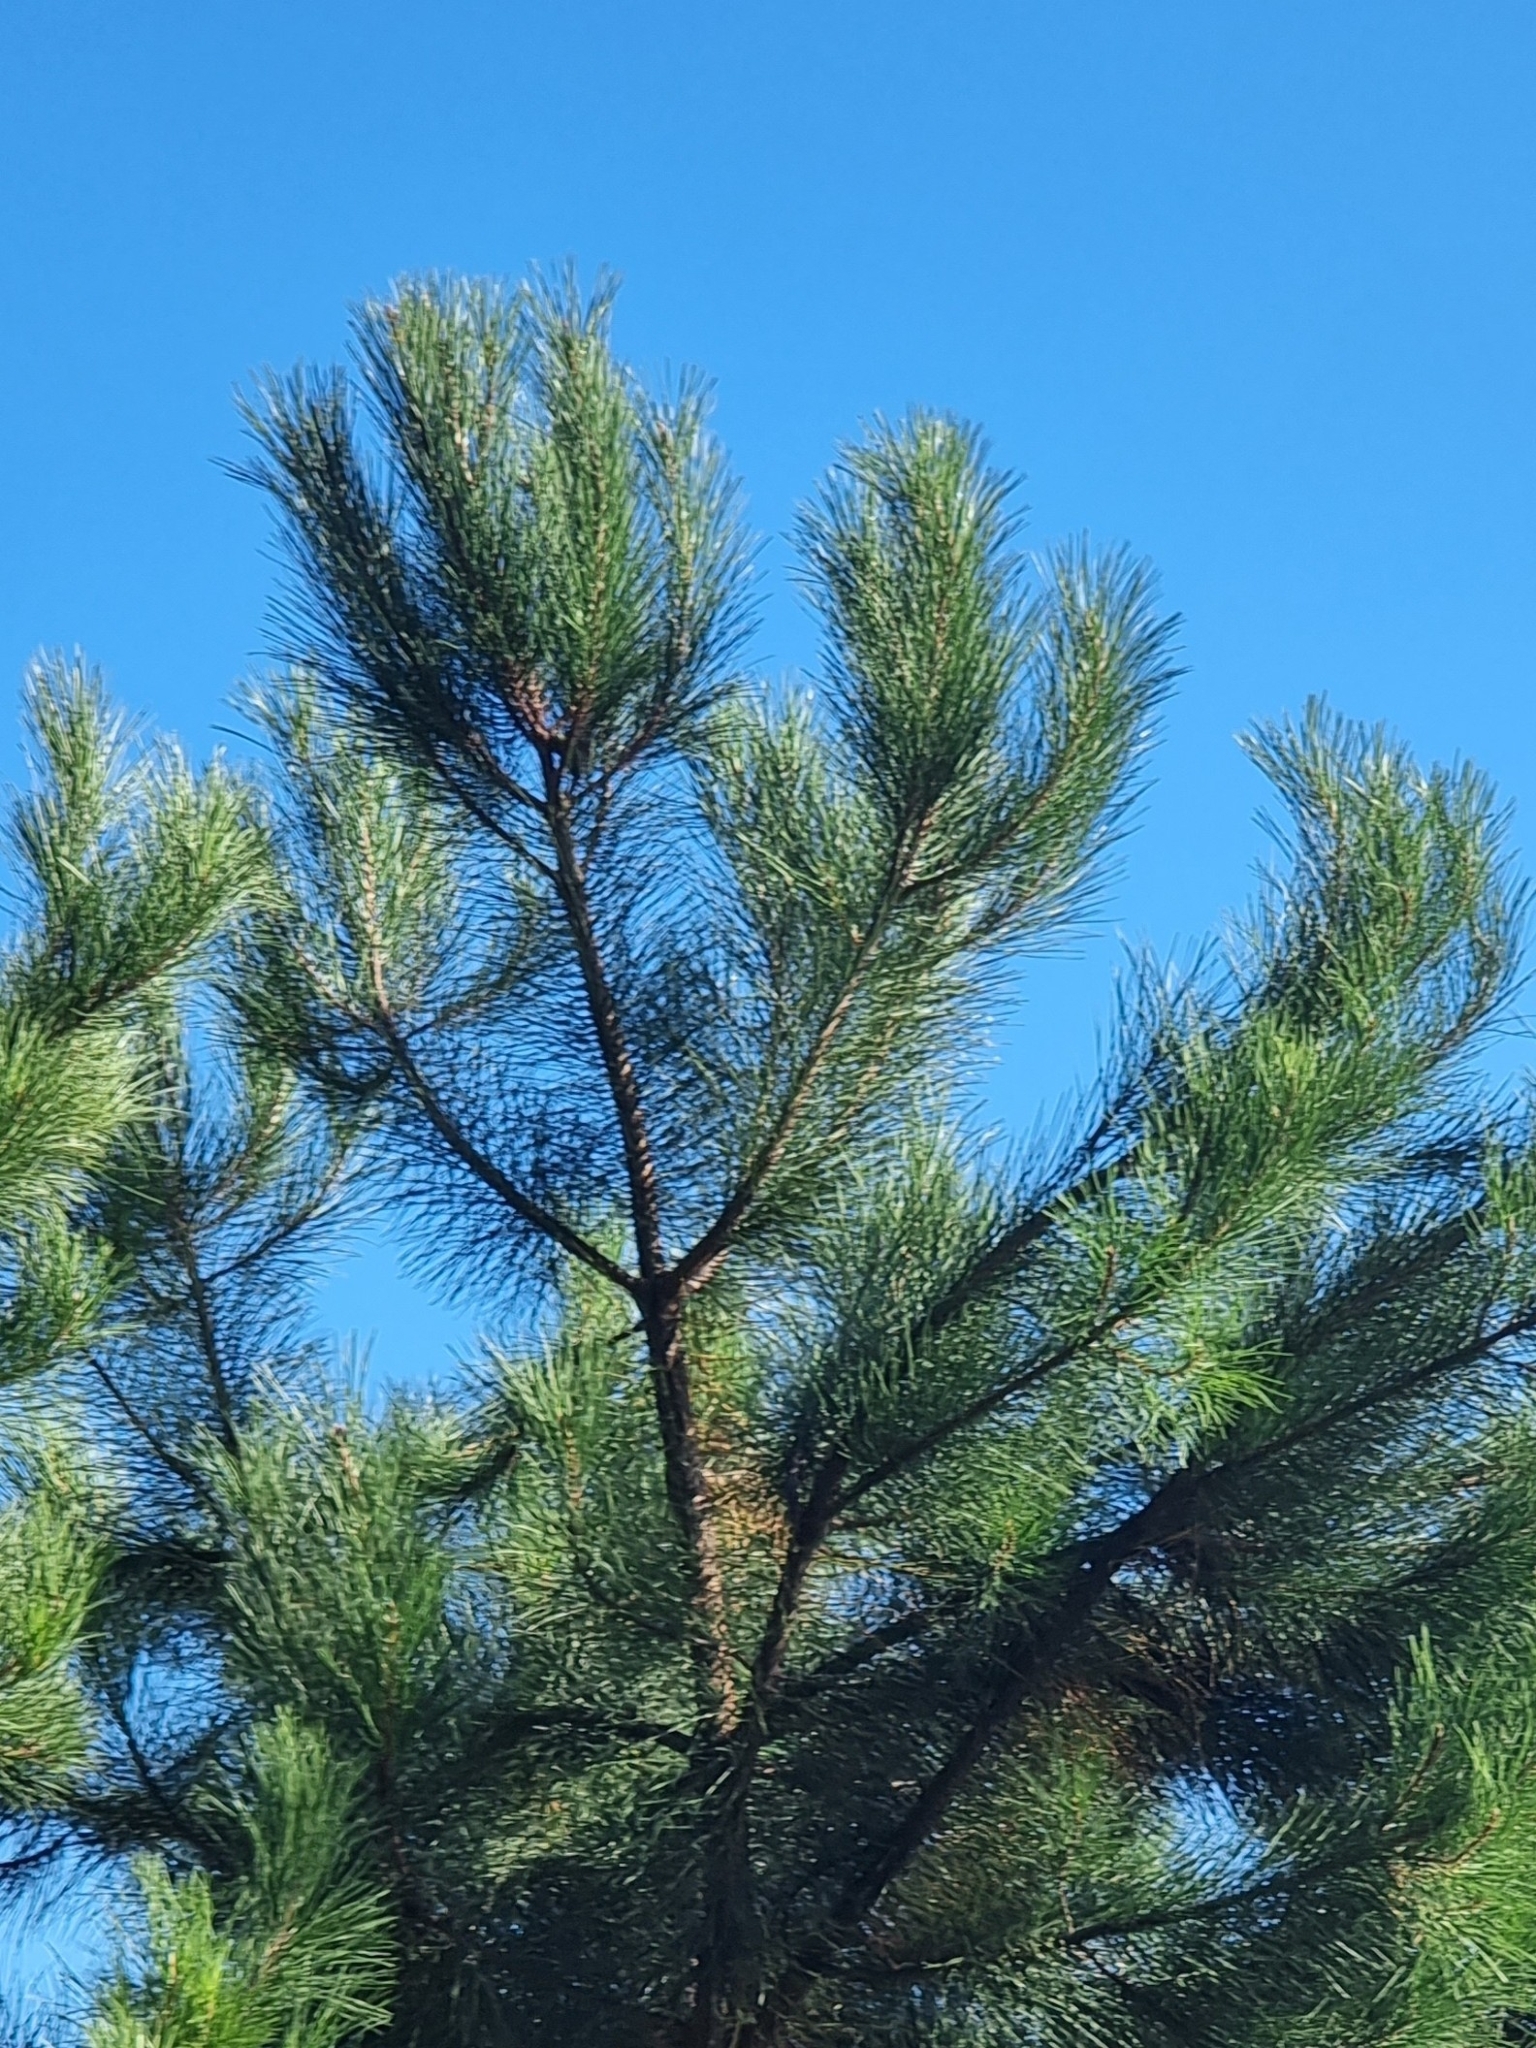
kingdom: Plantae
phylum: Tracheophyta
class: Pinopsida
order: Pinales
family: Pinaceae
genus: Pinus
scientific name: Pinus pinaster
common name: Maritime pine
